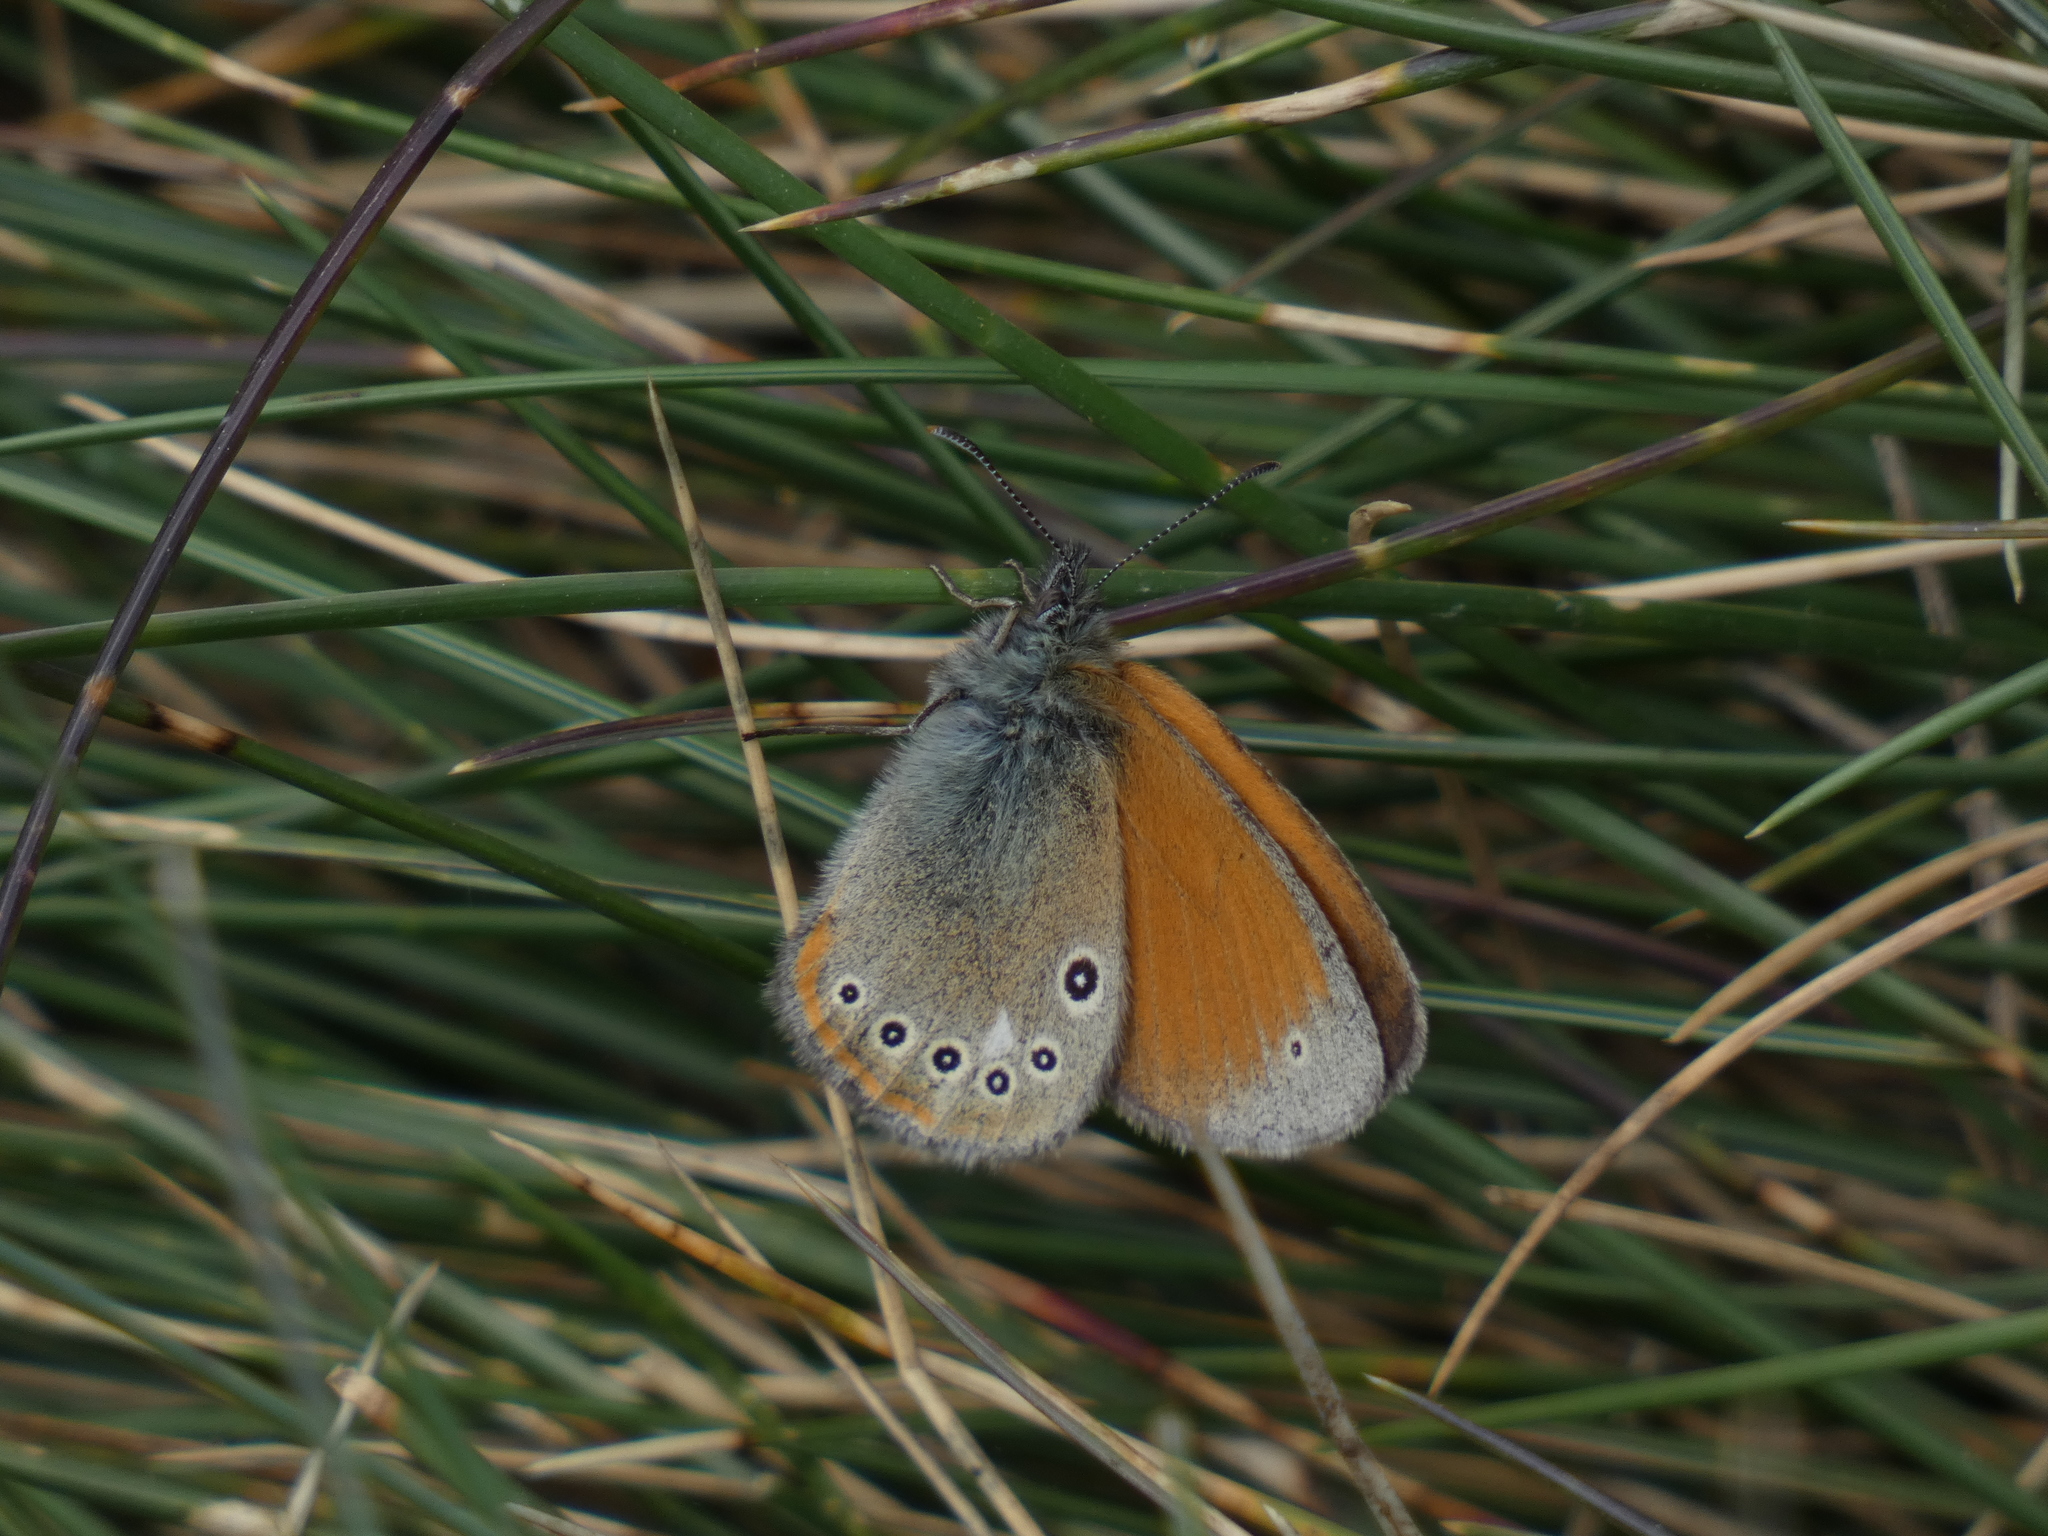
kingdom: Animalia
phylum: Arthropoda
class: Insecta
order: Lepidoptera
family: Nymphalidae
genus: Coenonympha
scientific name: Coenonympha iphis
